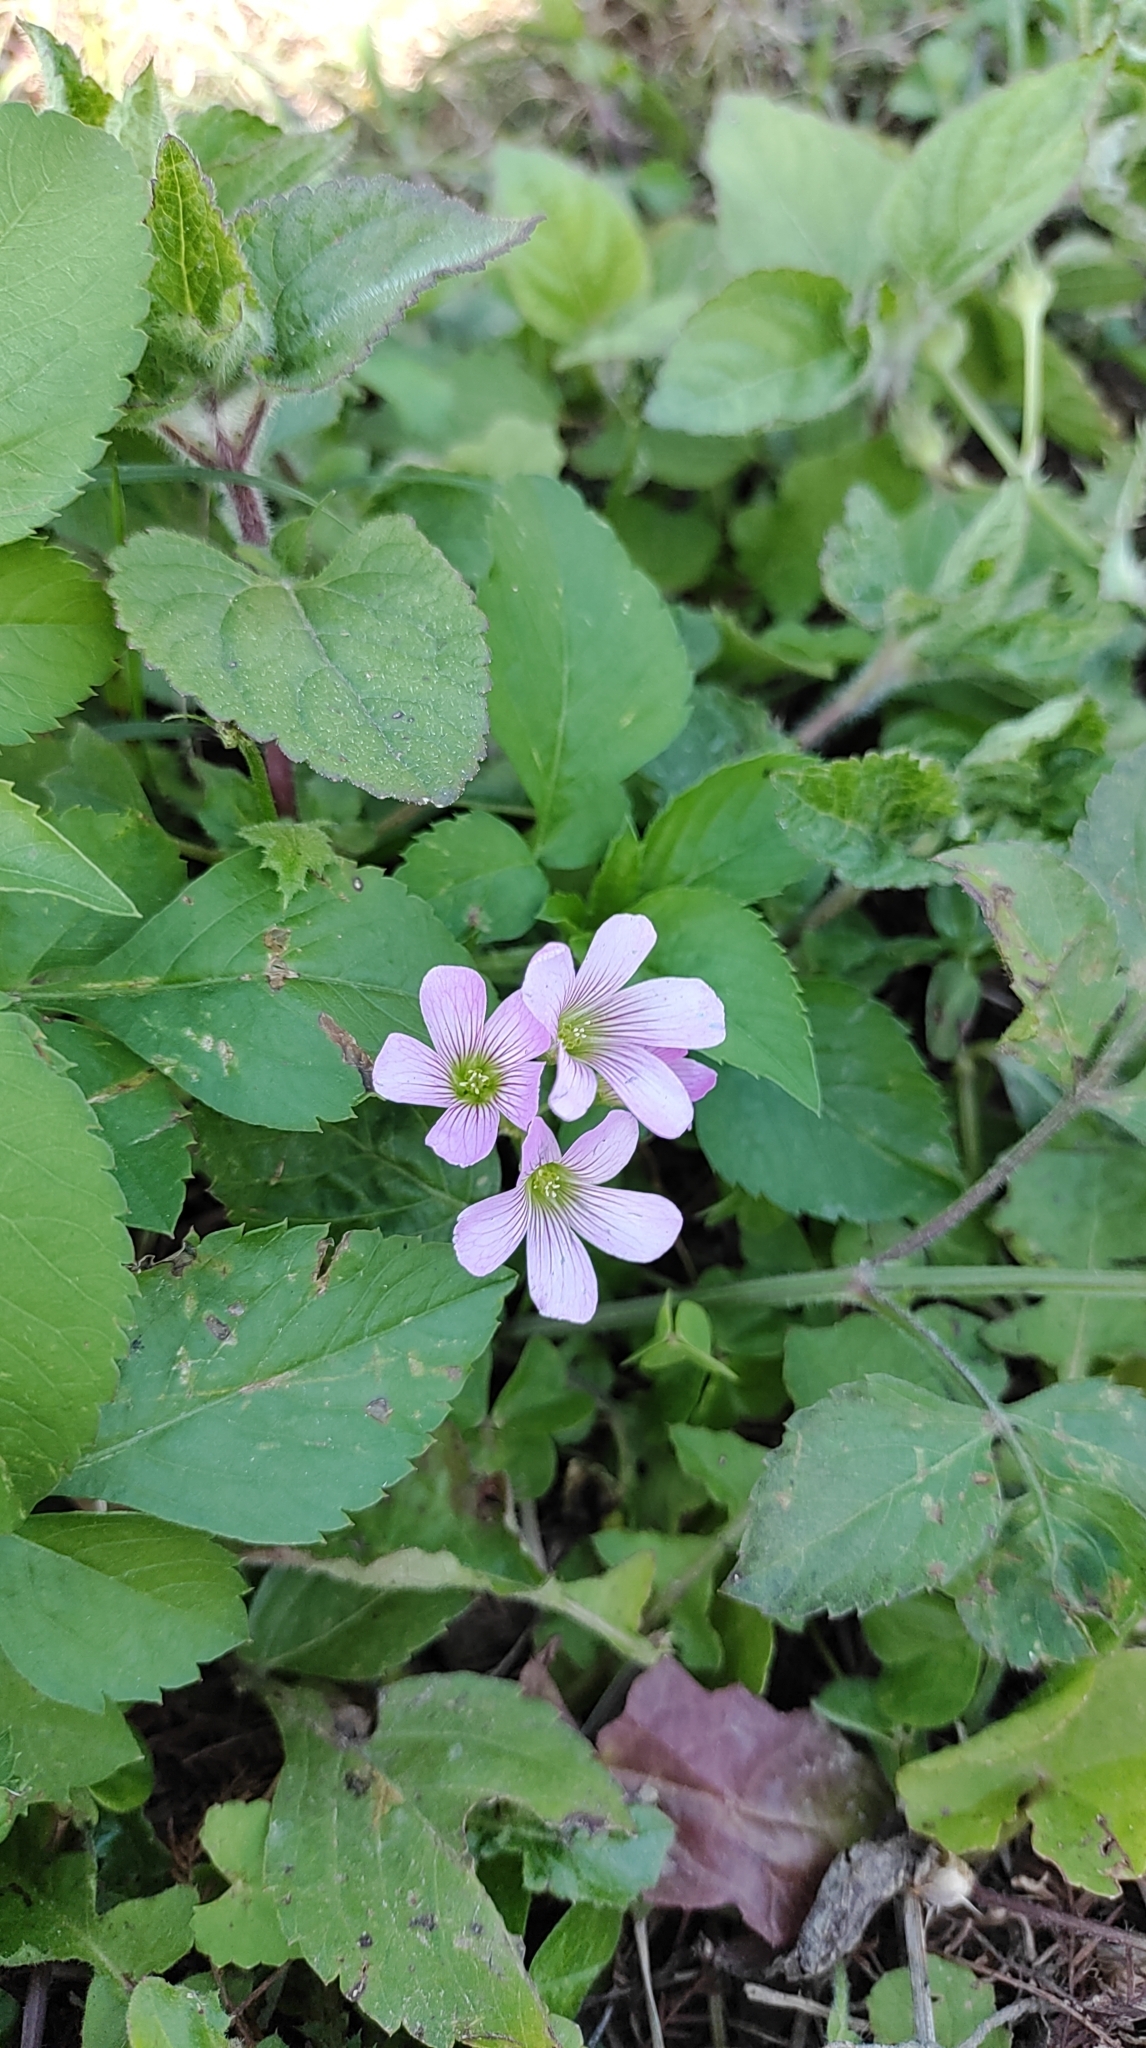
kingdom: Plantae
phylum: Tracheophyta
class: Magnoliopsida
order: Oxalidales
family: Oxalidaceae
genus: Oxalis
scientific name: Oxalis debilis
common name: Large-flowered pink-sorrel
